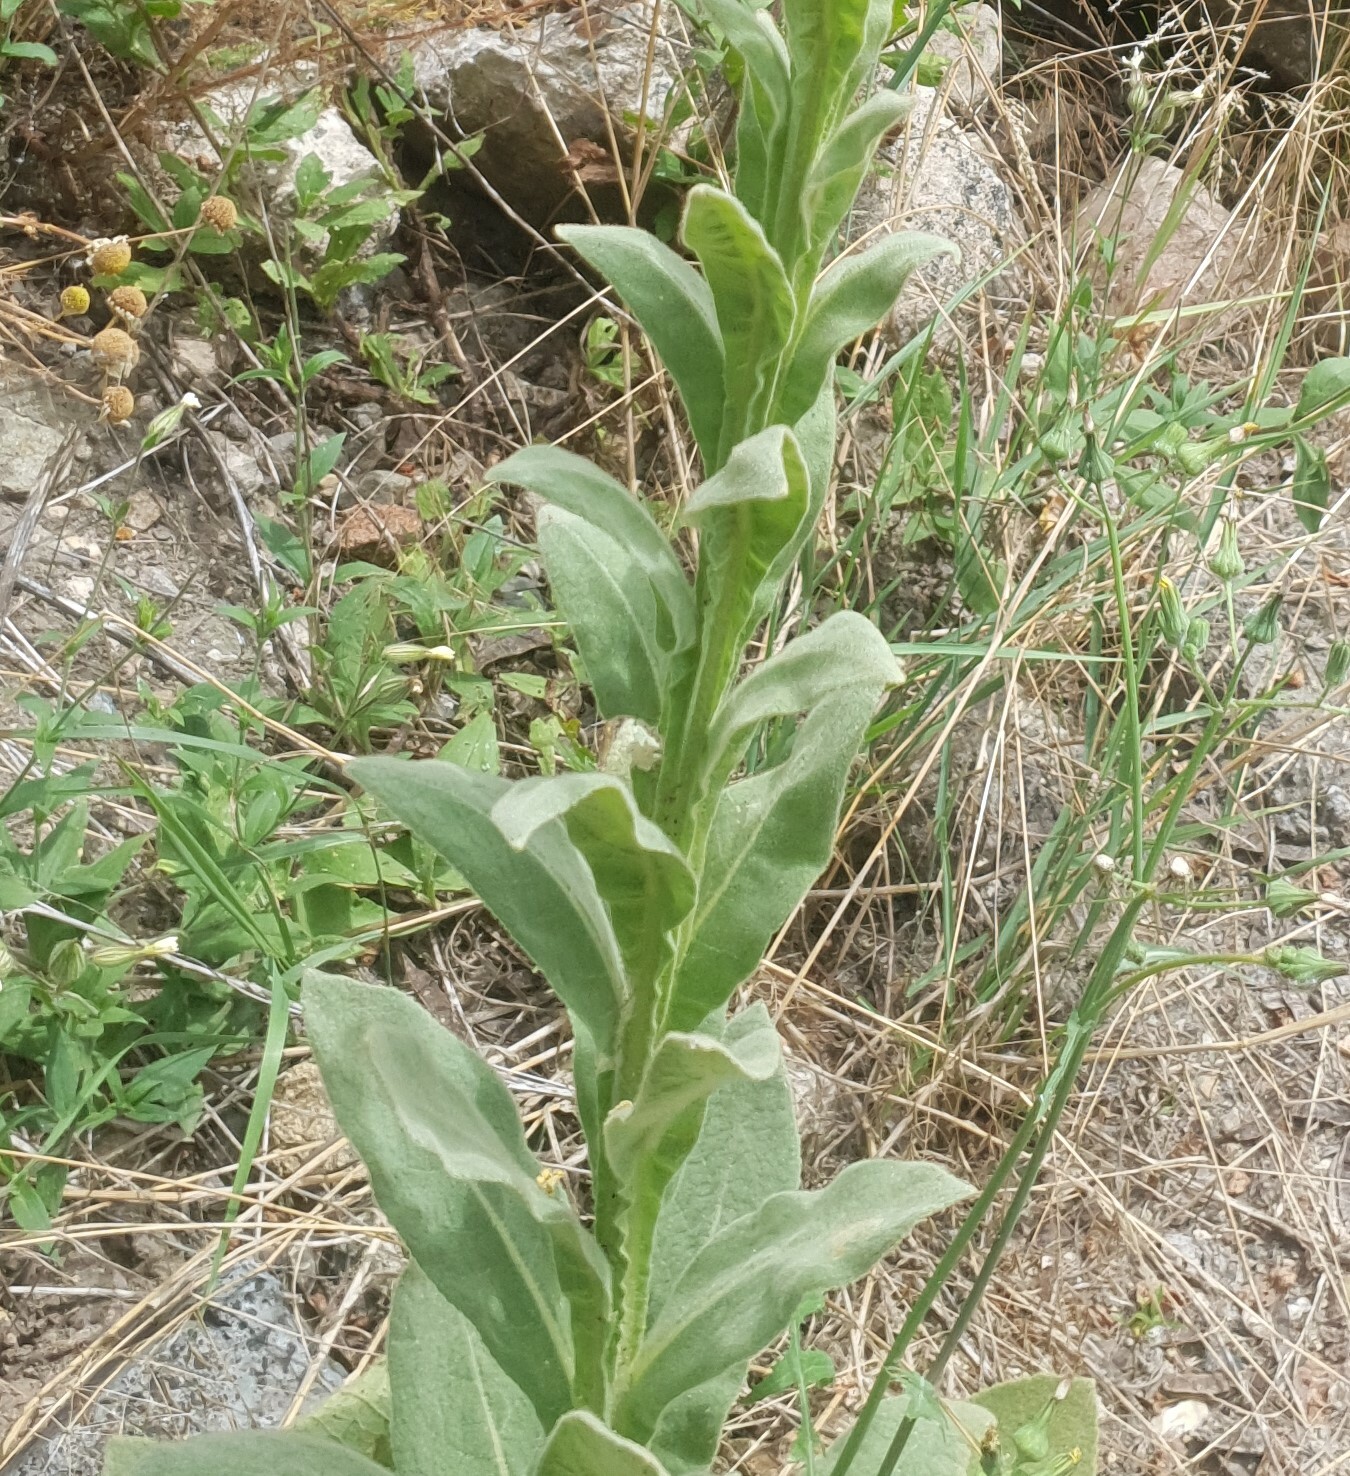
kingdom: Plantae
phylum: Tracheophyta
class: Magnoliopsida
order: Lamiales
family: Scrophulariaceae
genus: Verbascum
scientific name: Verbascum thapsus
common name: Common mullein
